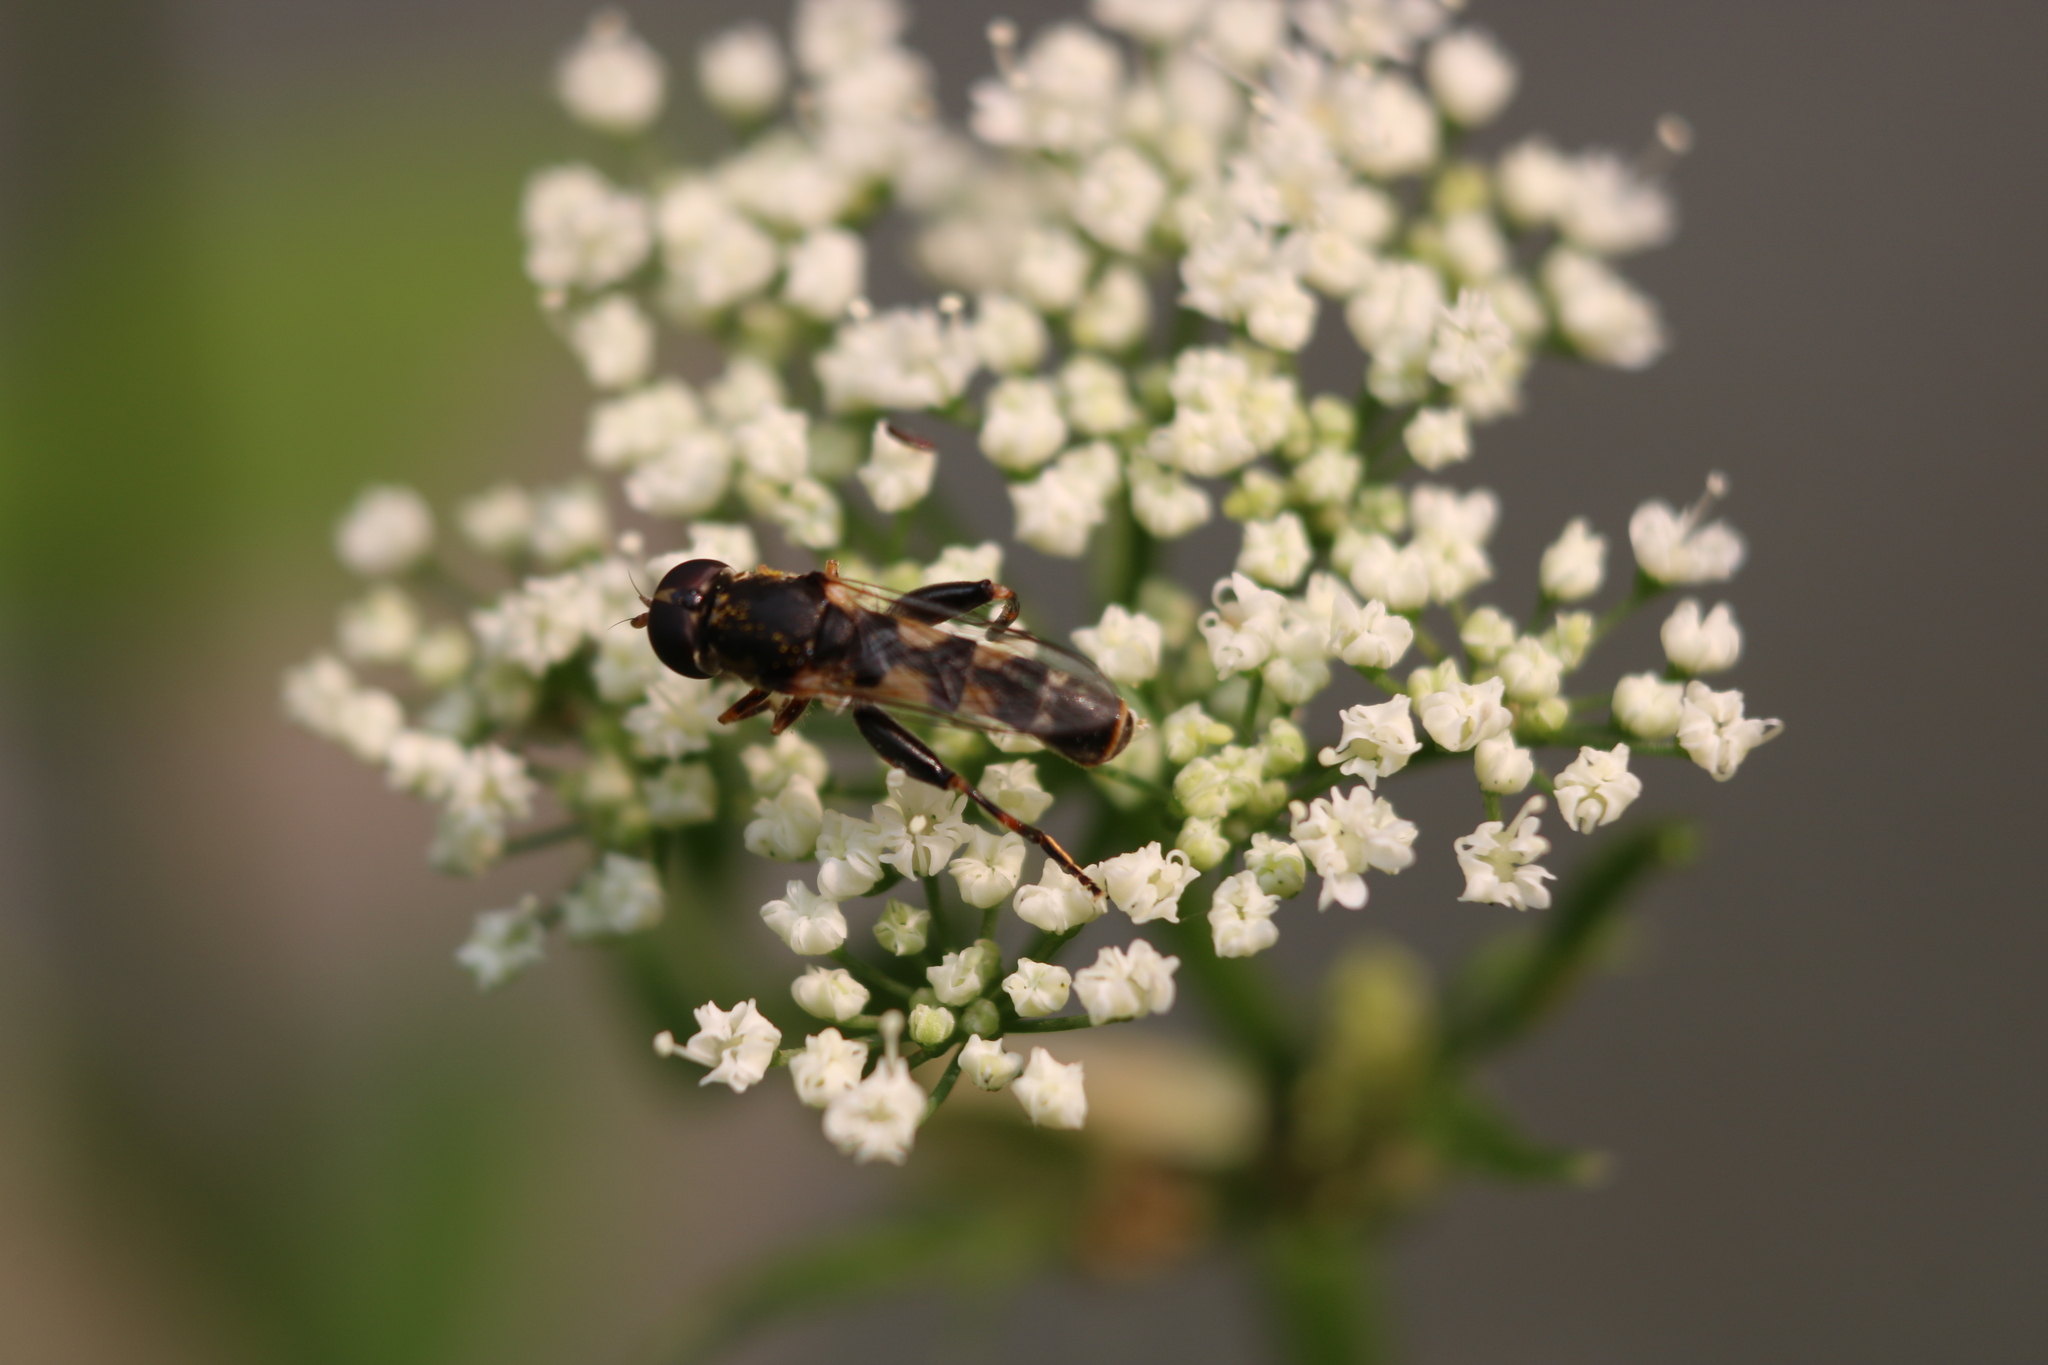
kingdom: Animalia
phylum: Arthropoda
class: Insecta
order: Diptera
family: Syrphidae
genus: Syritta
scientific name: Syritta pipiens
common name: Hover fly
